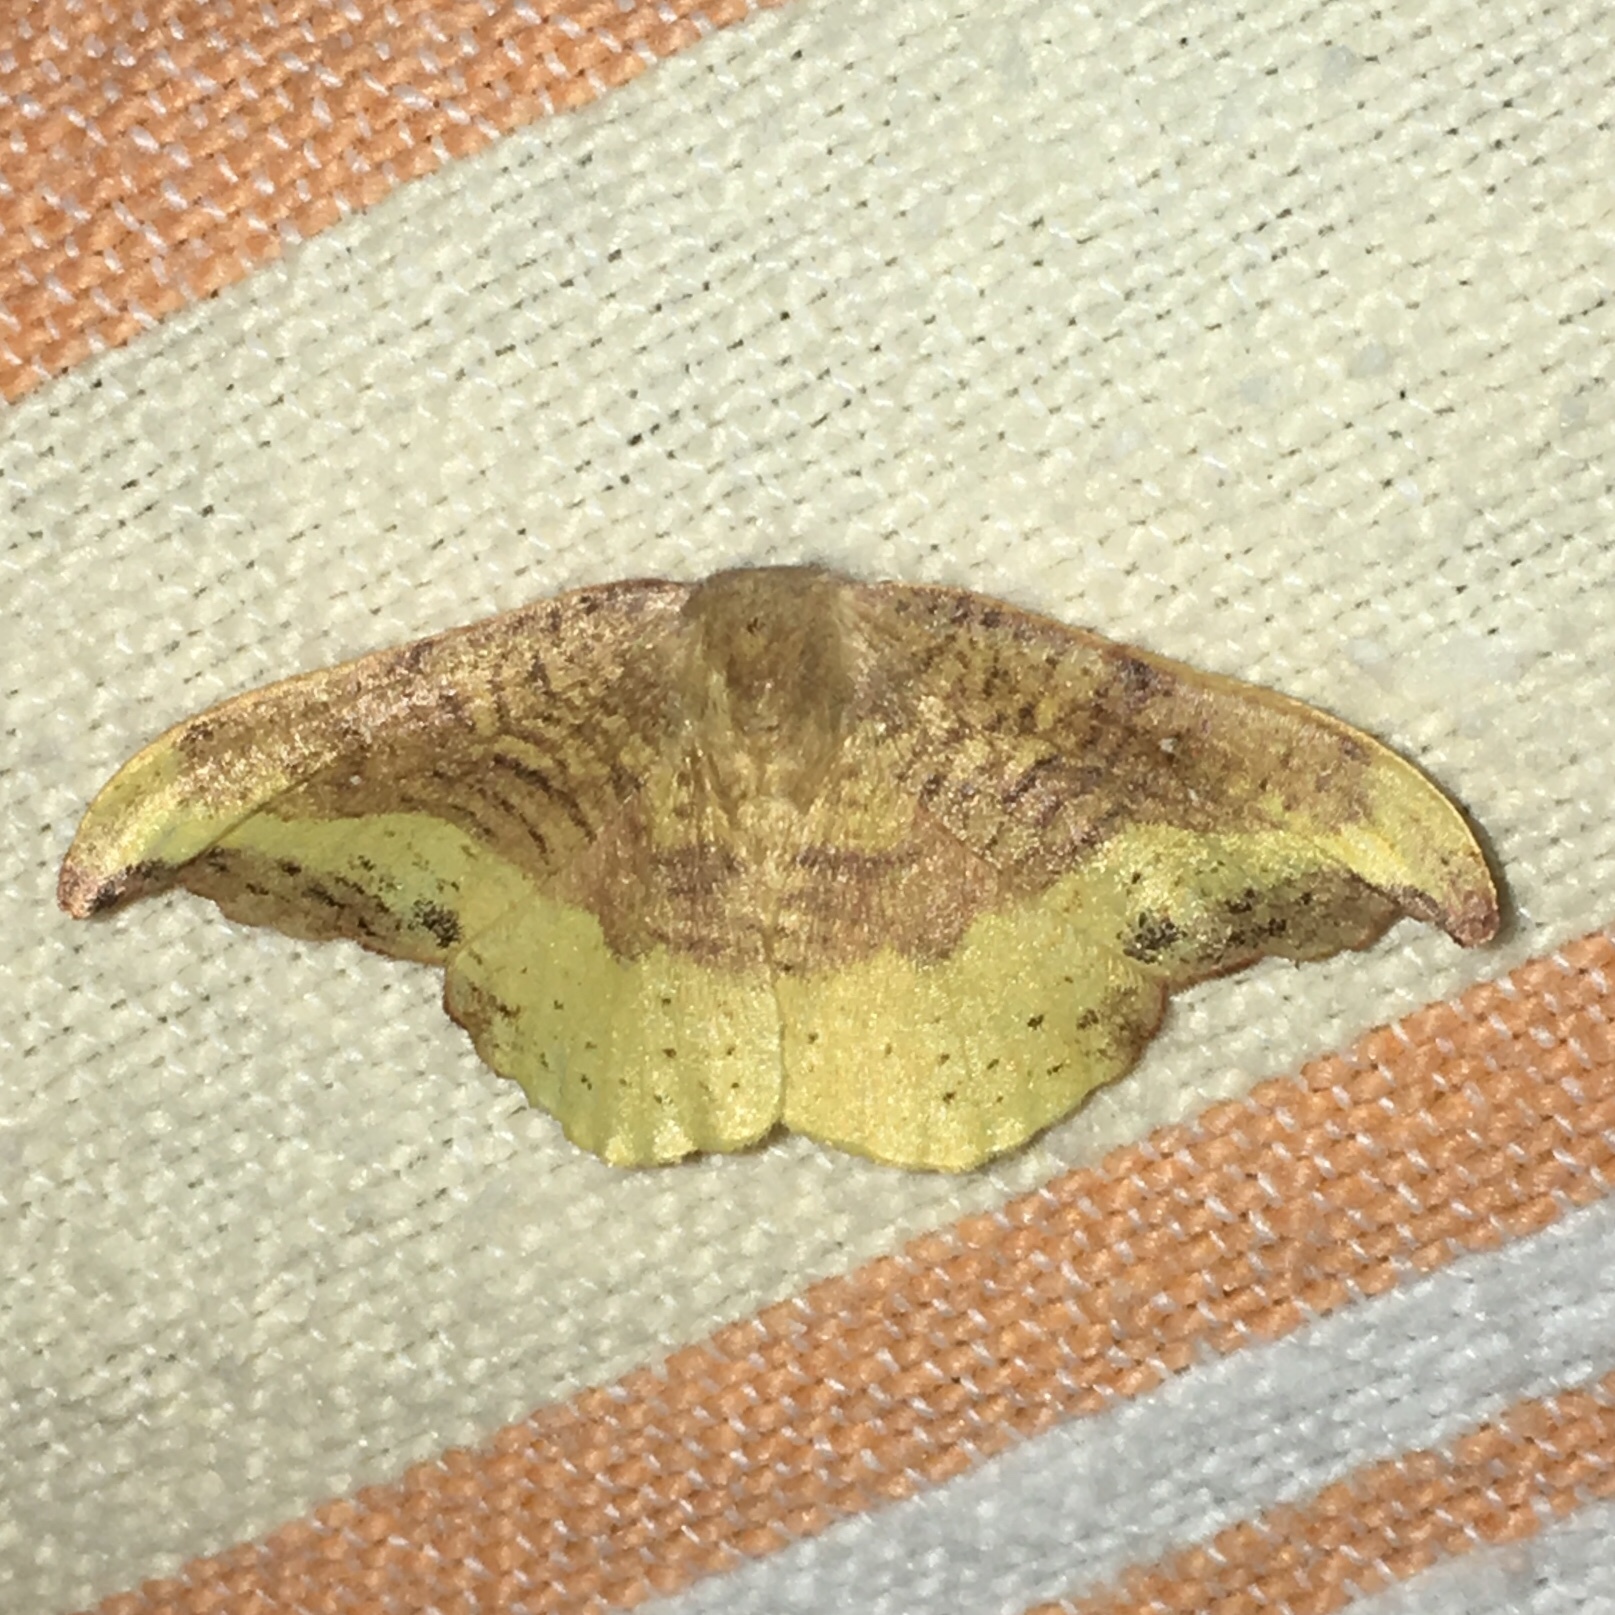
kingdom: Animalia
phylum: Arthropoda
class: Insecta
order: Lepidoptera
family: Drepanidae
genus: Oreta
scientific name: Oreta rosea
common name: Rose hooktip
